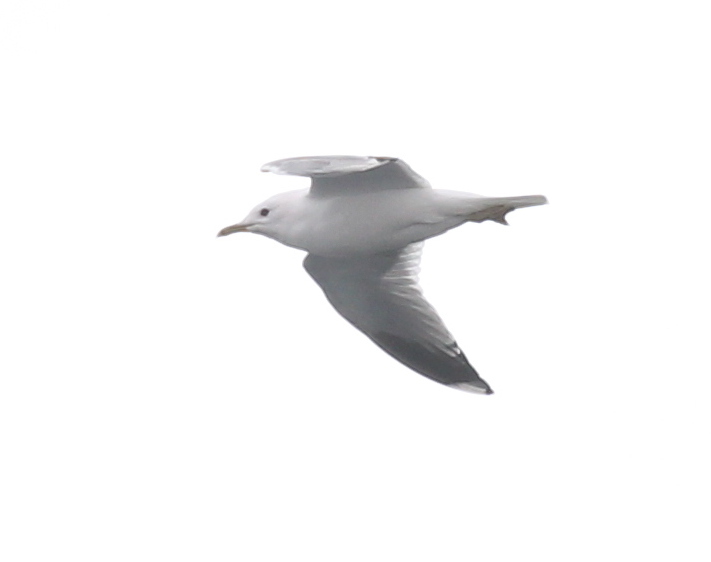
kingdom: Animalia
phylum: Chordata
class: Aves
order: Charadriiformes
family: Laridae
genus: Larus
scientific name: Larus canus
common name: Mew gull
